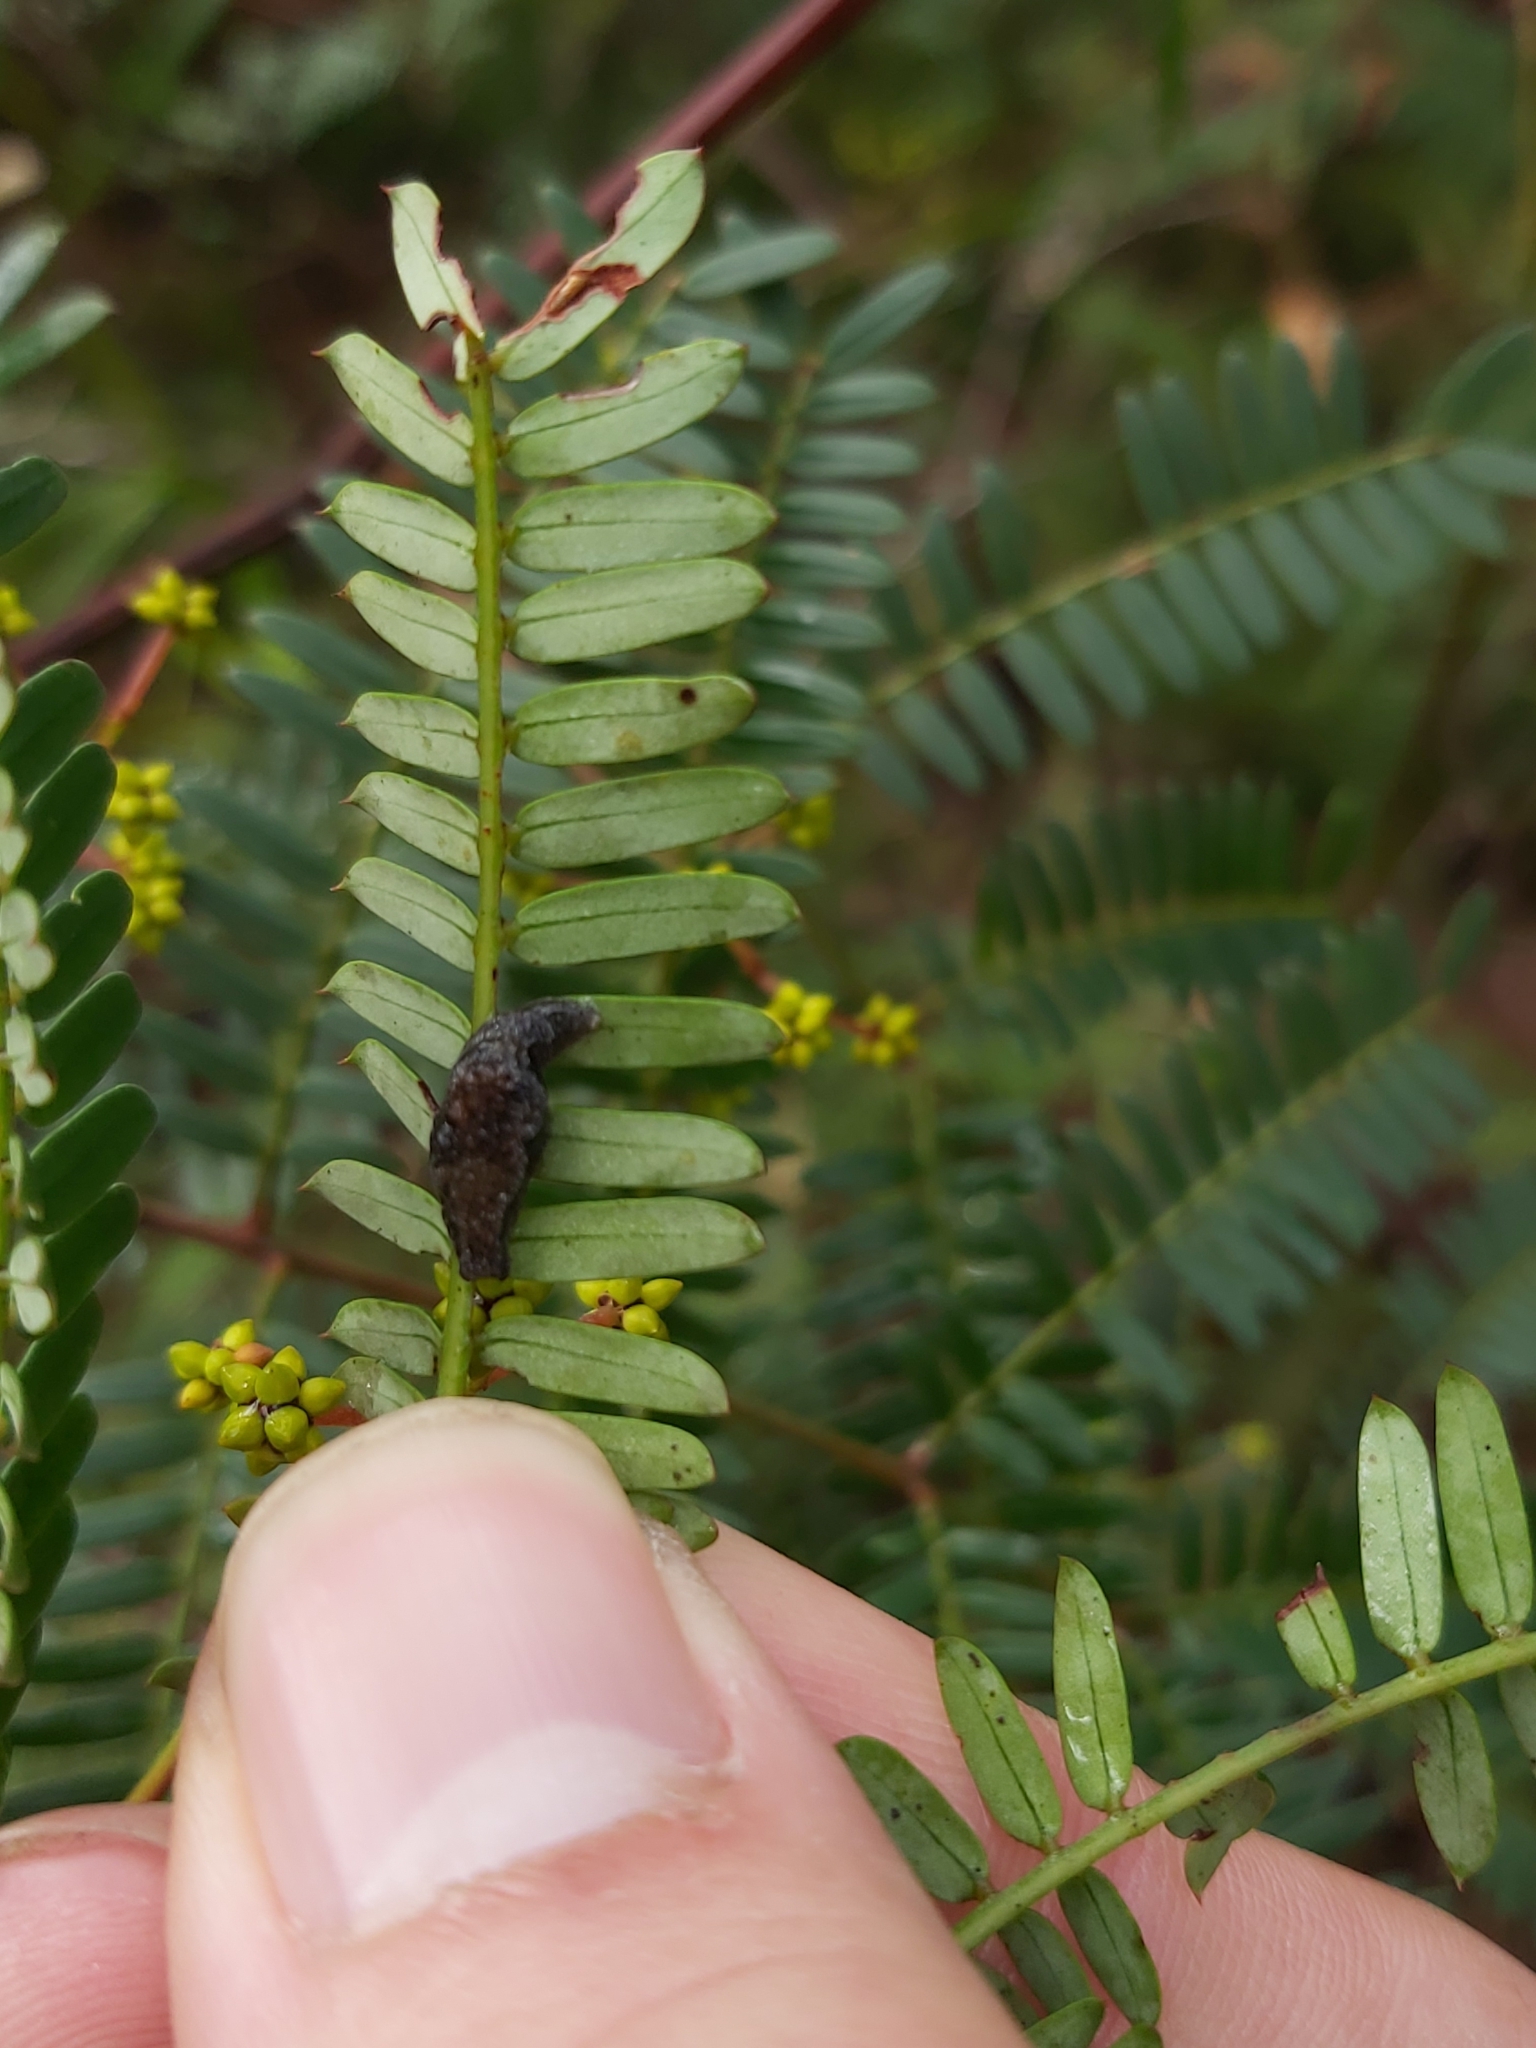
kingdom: Animalia
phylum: Mollusca
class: Gastropoda
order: Stylommatophora
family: Cystopeltidae
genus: Cystopelta
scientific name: Cystopelta astra
